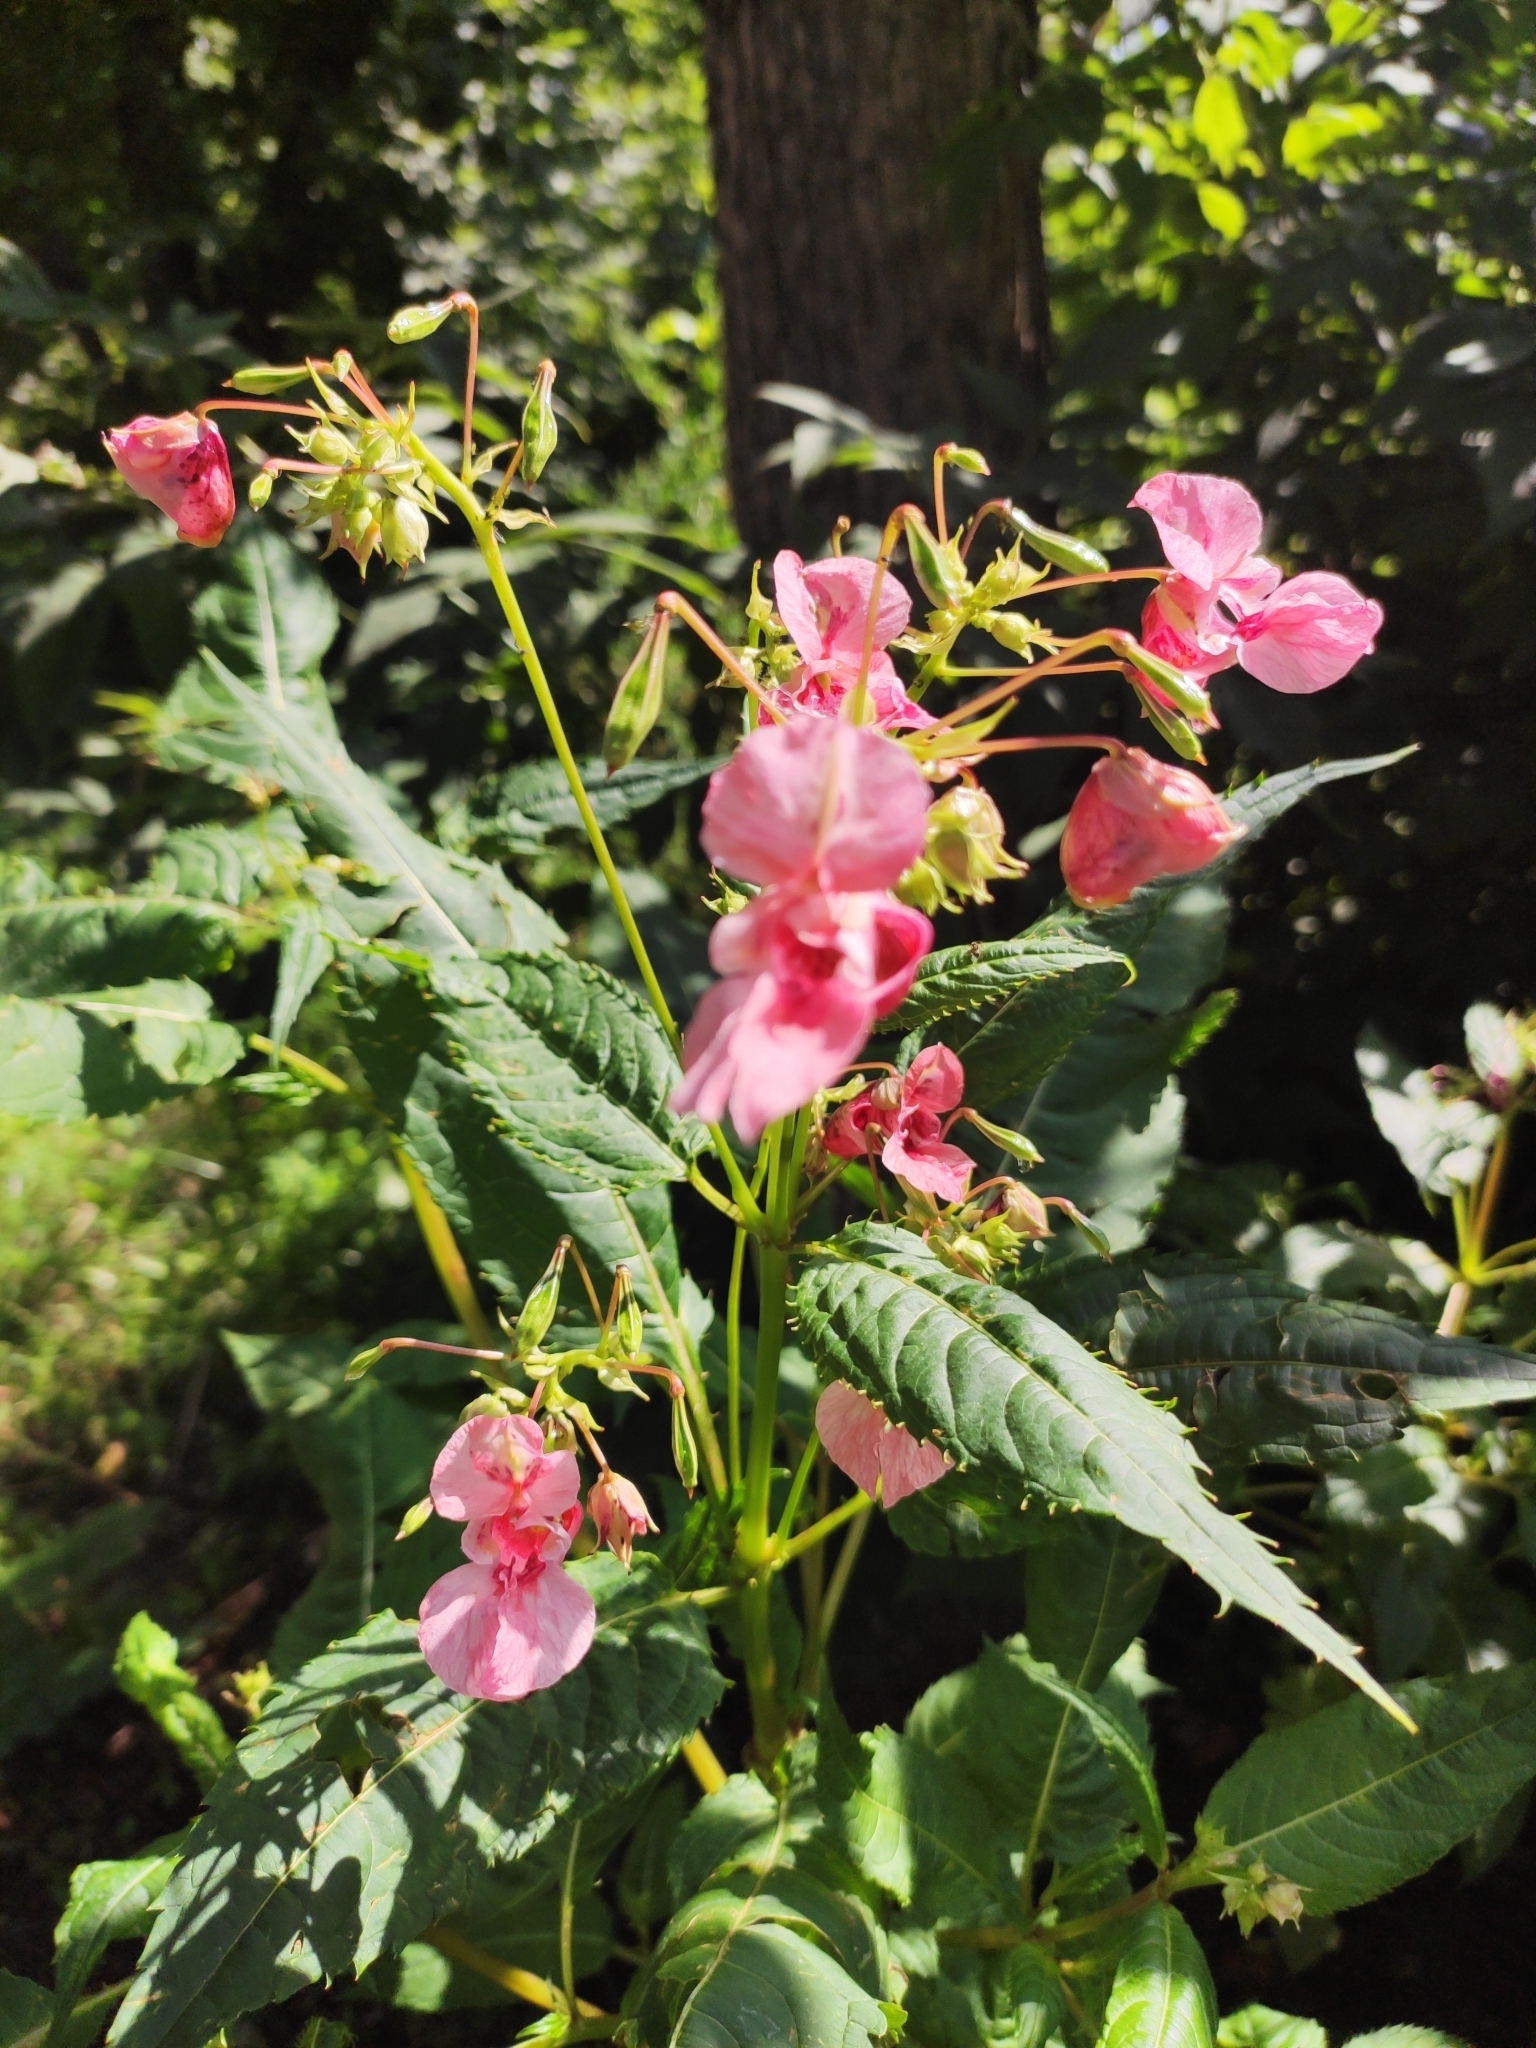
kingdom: Plantae
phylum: Tracheophyta
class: Magnoliopsida
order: Ericales
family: Balsaminaceae
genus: Impatiens
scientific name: Impatiens glandulifera
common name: Himalayan balsam
